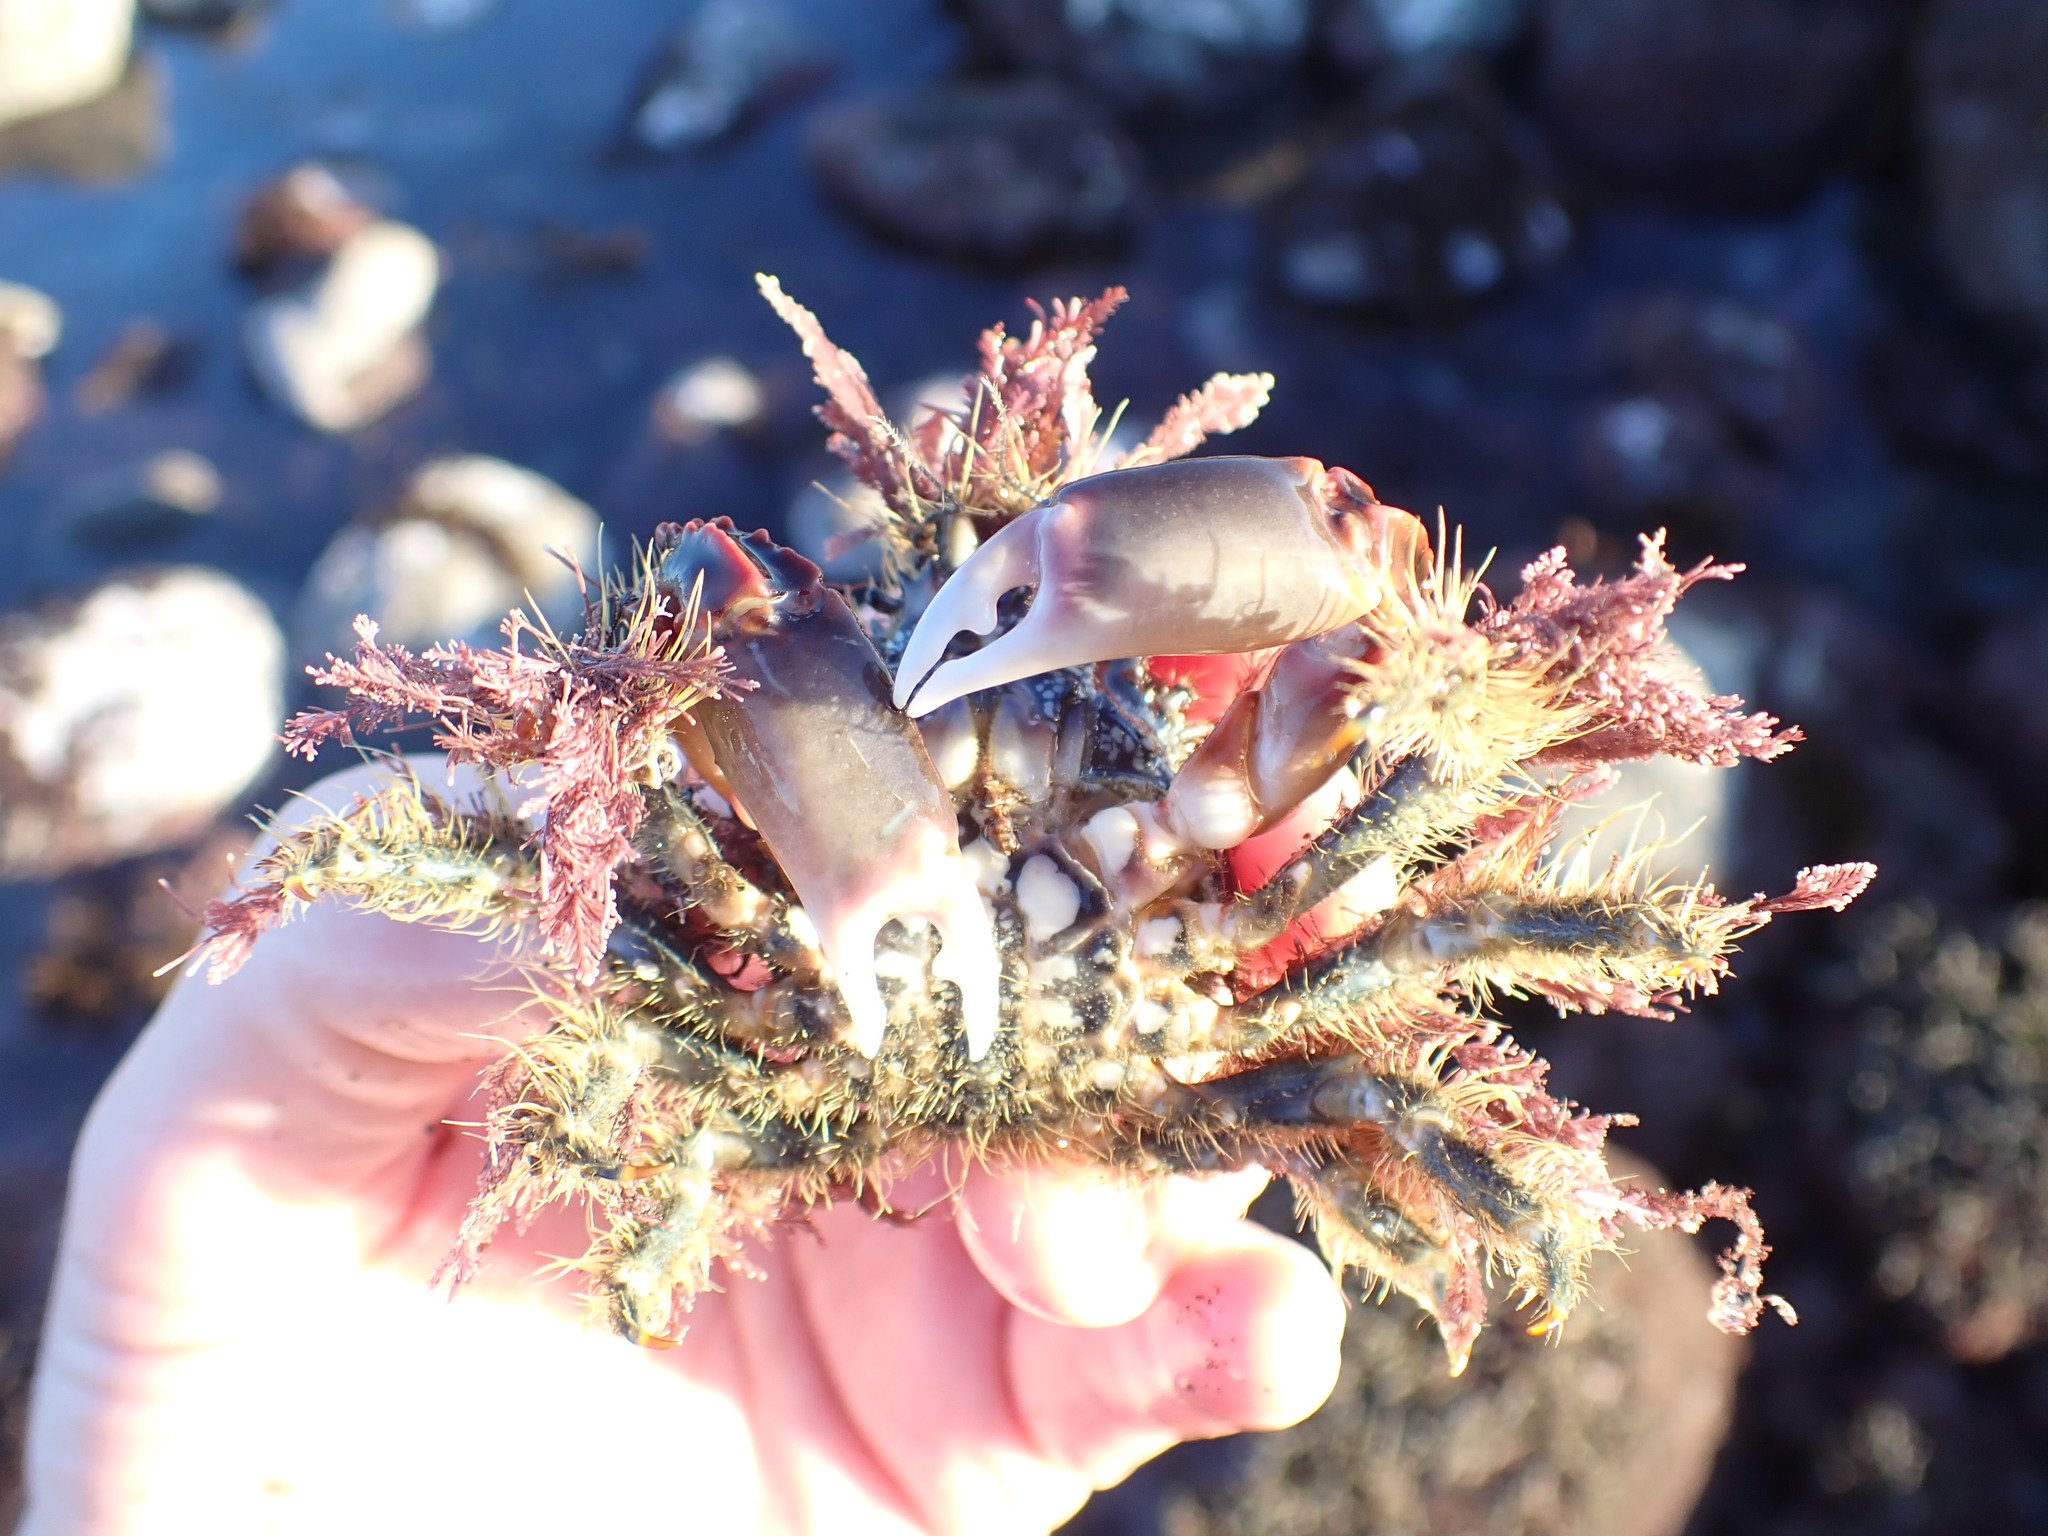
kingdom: Animalia
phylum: Arthropoda
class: Malacostraca
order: Decapoda
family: Majidae
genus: Notomithrax
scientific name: Notomithrax ursus
